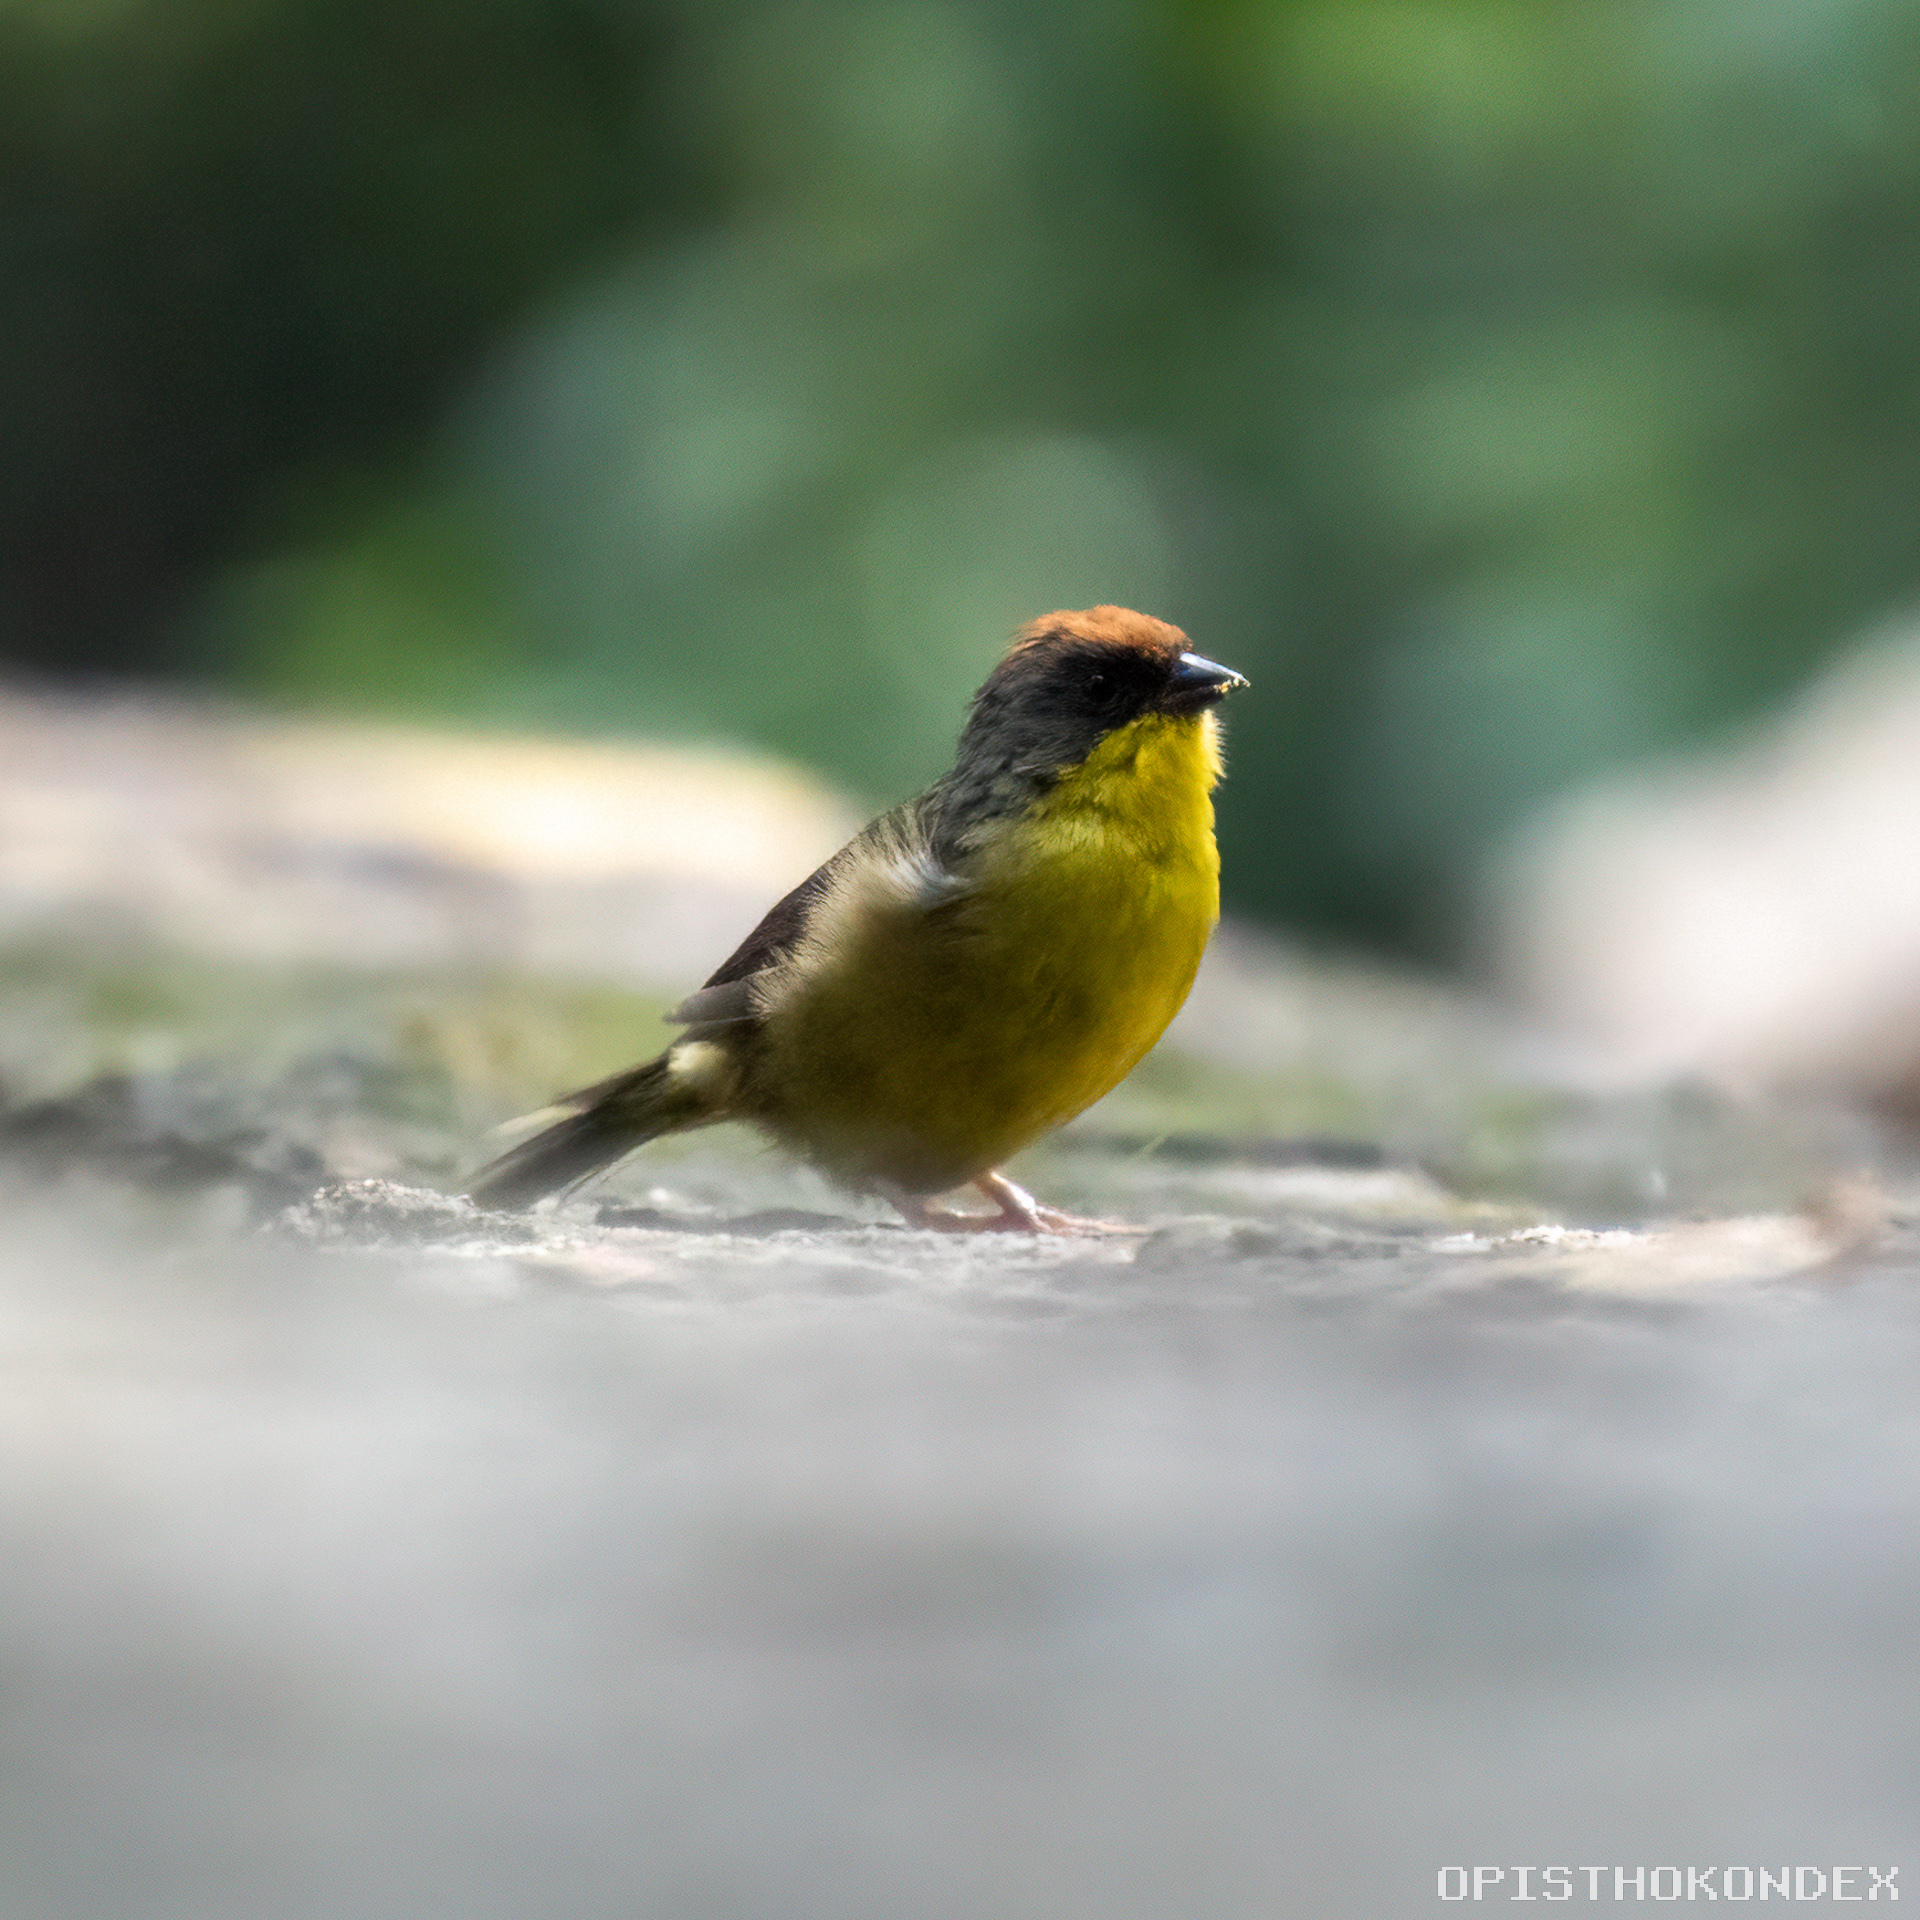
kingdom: Animalia
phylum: Chordata
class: Aves
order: Passeriformes
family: Passerellidae
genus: Atlapetes
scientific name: Atlapetes pileatus
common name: Rufous-capped brush-finch
